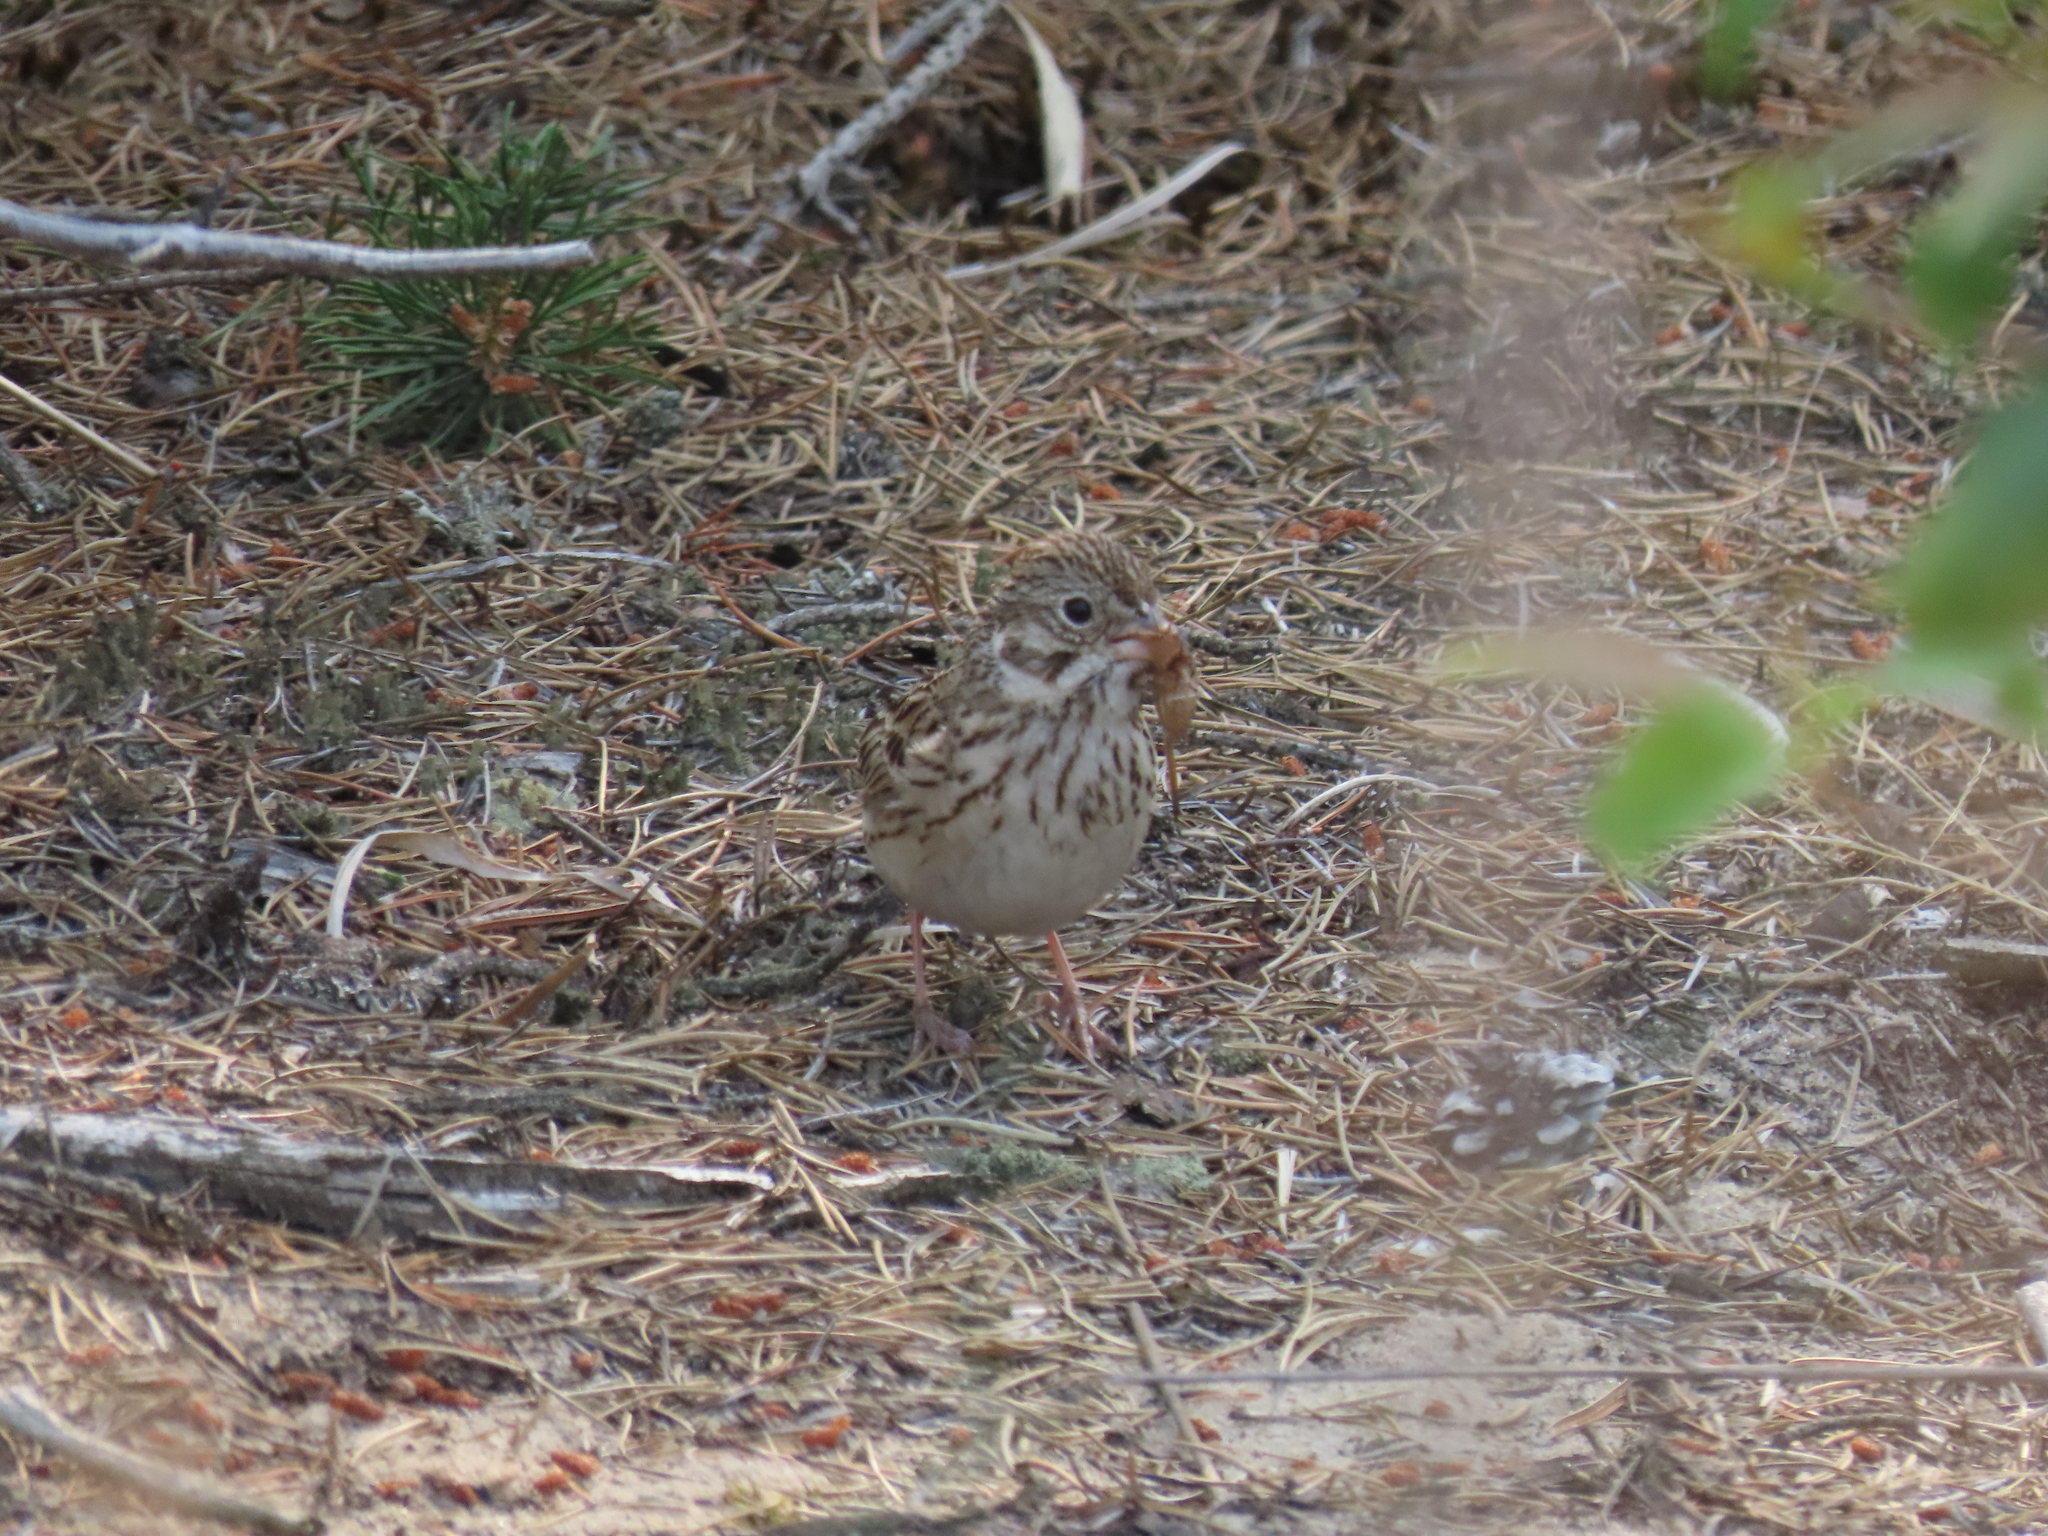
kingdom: Animalia
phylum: Chordata
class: Aves
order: Passeriformes
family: Passerellidae
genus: Pooecetes
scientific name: Pooecetes gramineus
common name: Vesper sparrow
